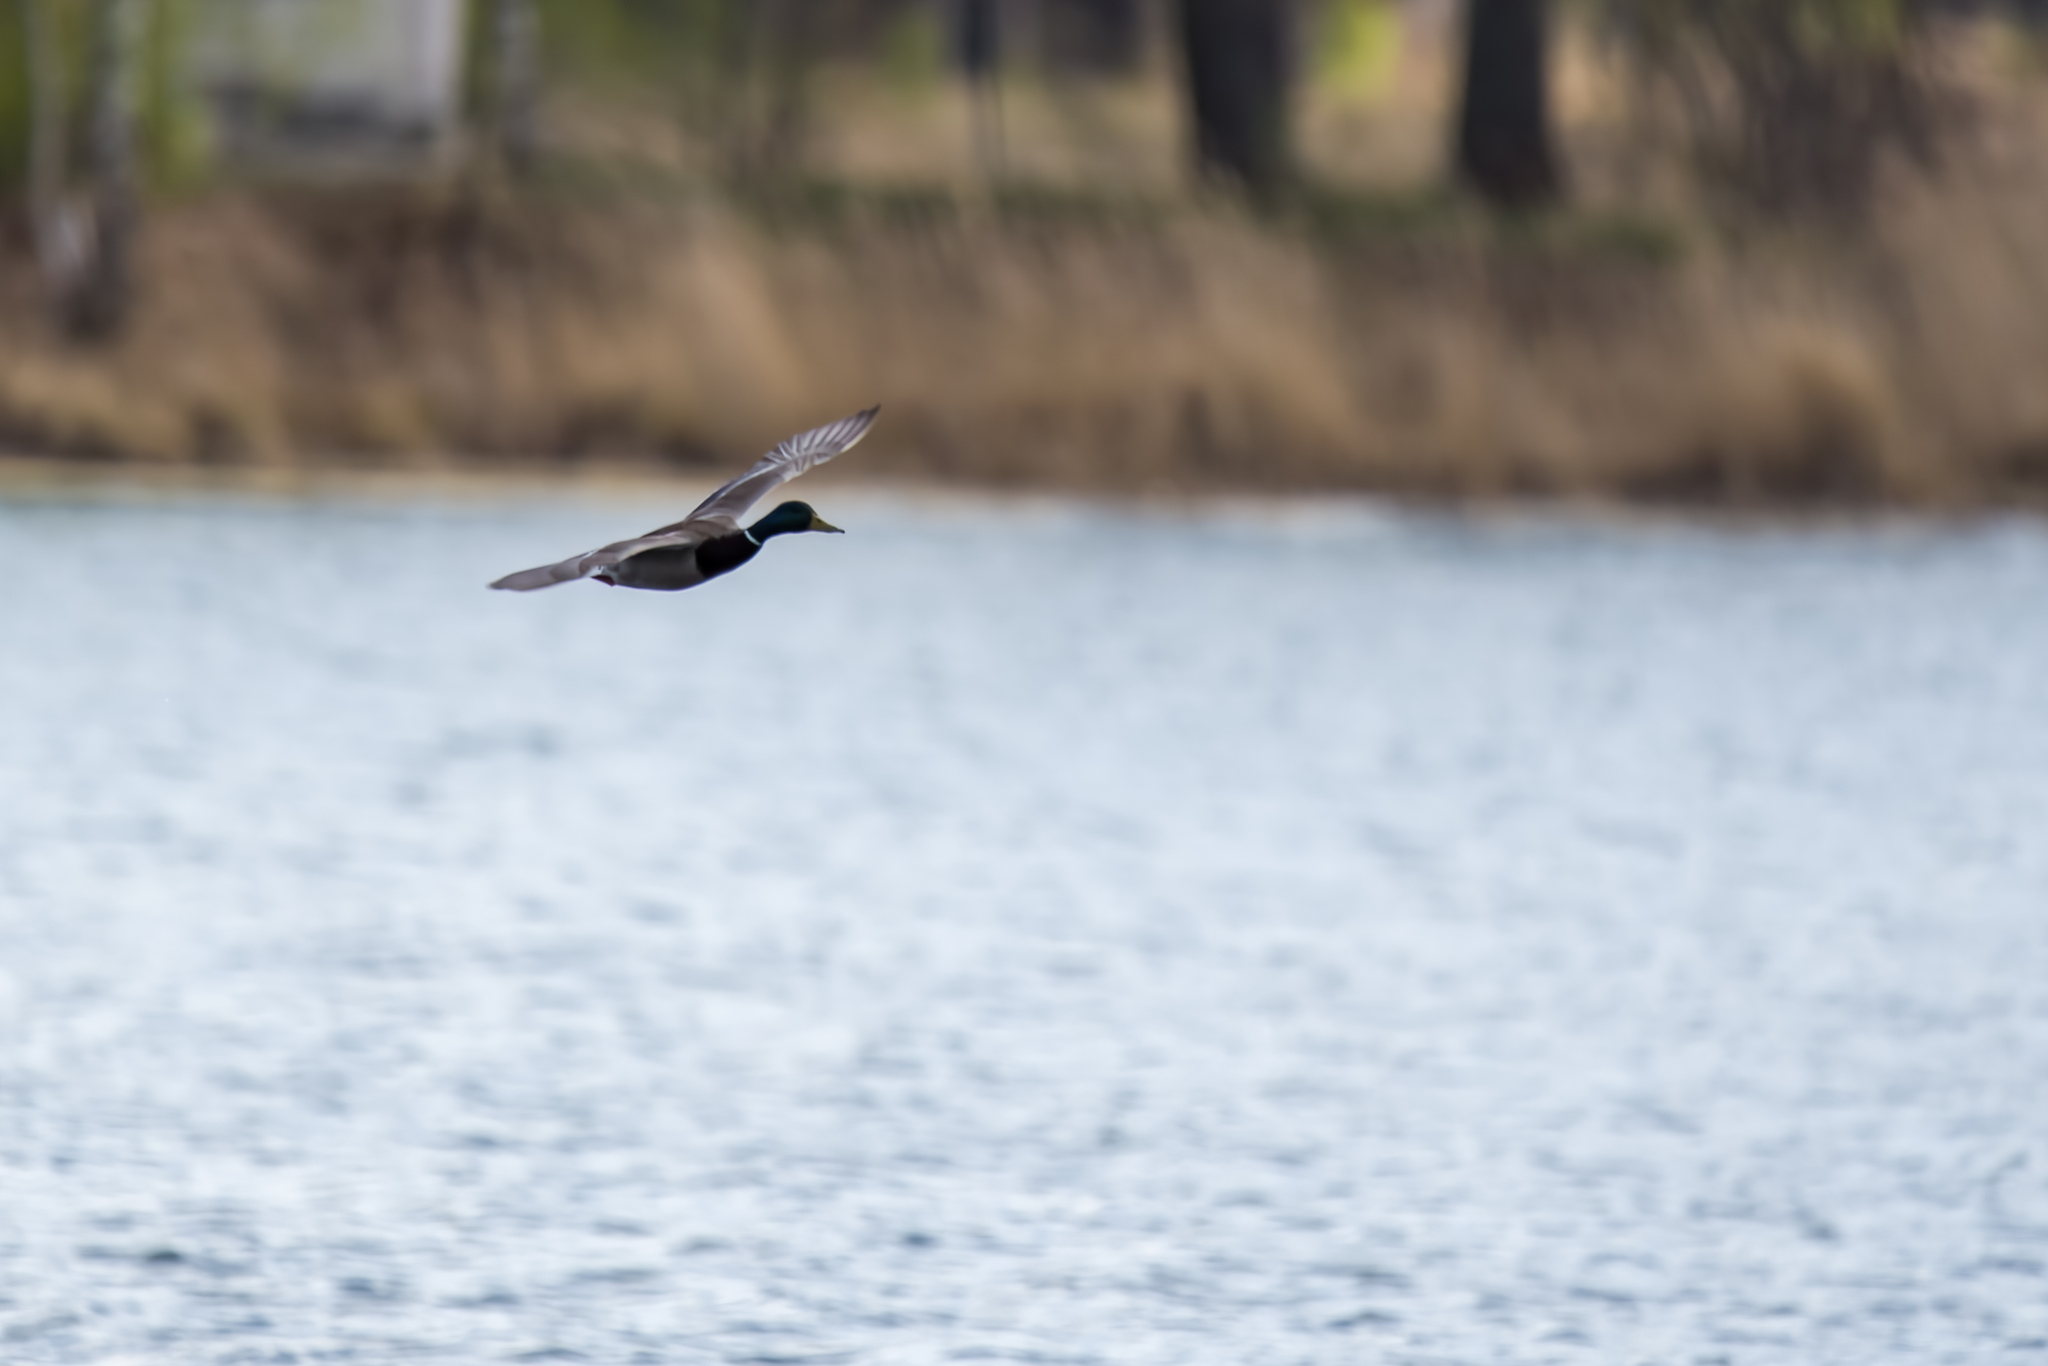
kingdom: Animalia
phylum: Chordata
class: Aves
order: Anseriformes
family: Anatidae
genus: Anas
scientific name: Anas platyrhynchos
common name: Mallard
